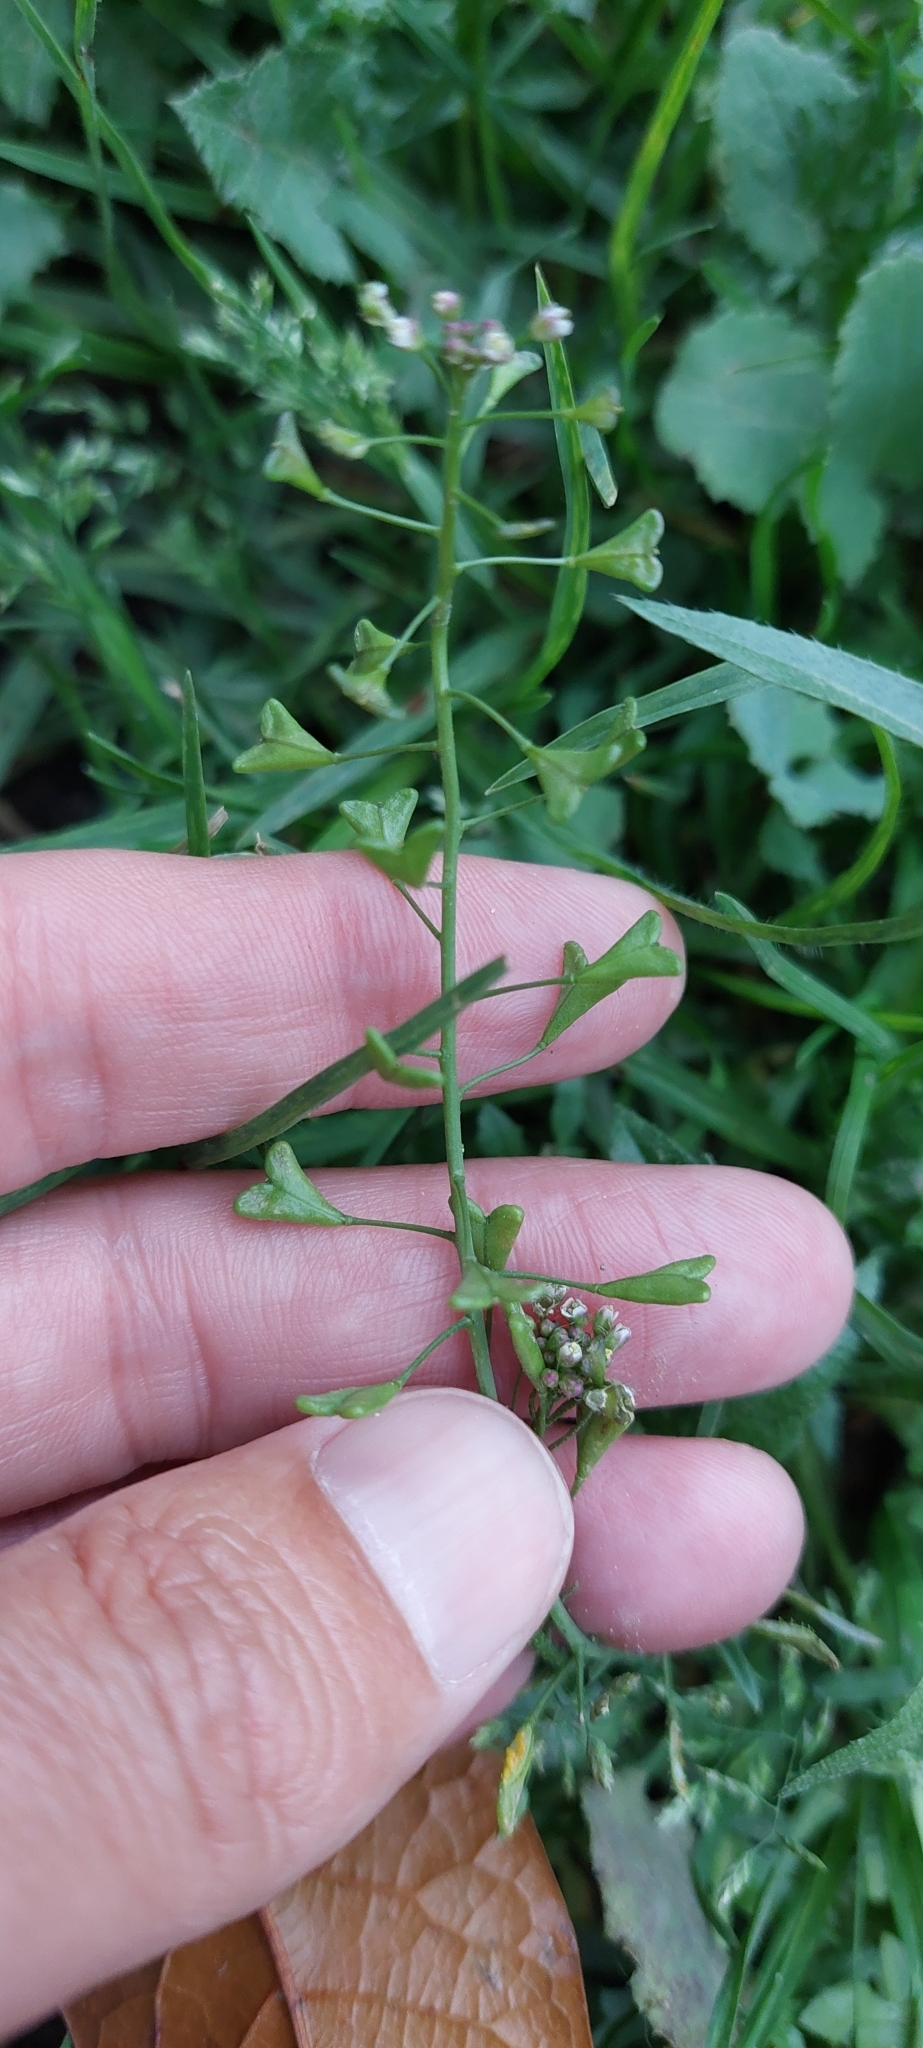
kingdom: Plantae
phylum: Tracheophyta
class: Magnoliopsida
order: Brassicales
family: Brassicaceae
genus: Capsella
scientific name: Capsella bursa-pastoris
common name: Shepherd's purse
